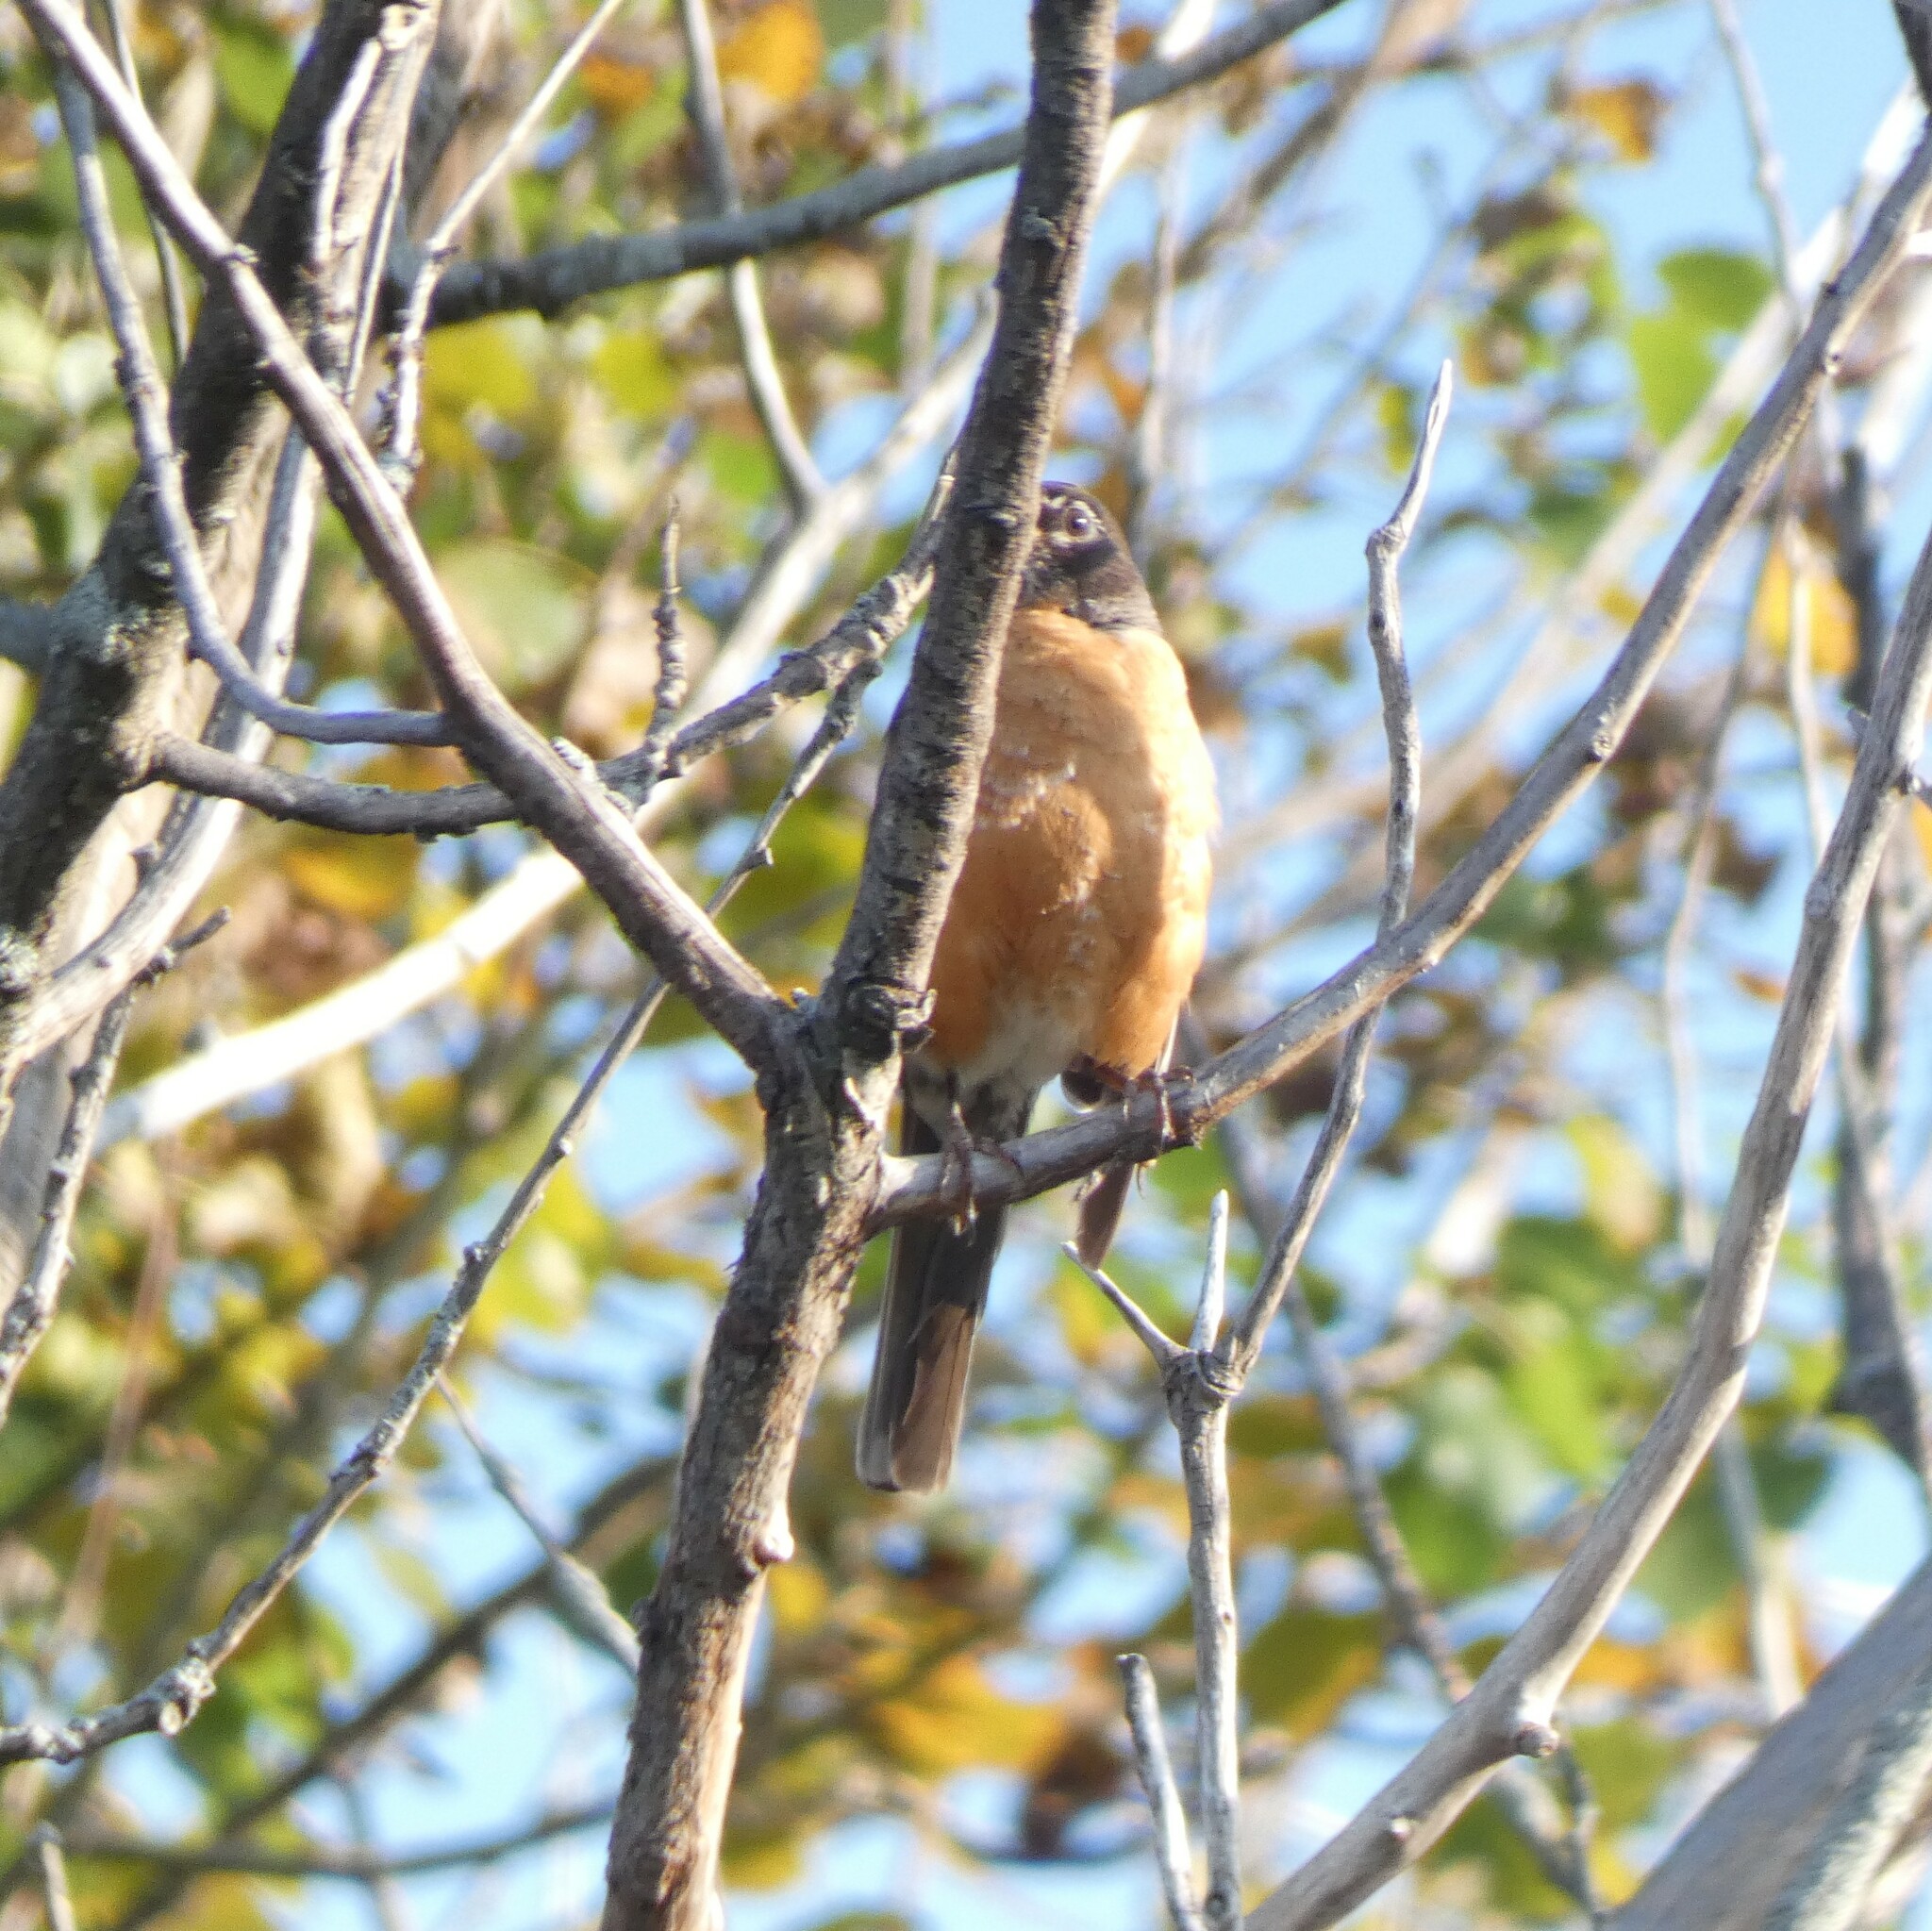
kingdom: Animalia
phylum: Chordata
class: Aves
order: Passeriformes
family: Turdidae
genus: Turdus
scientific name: Turdus migratorius
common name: American robin
